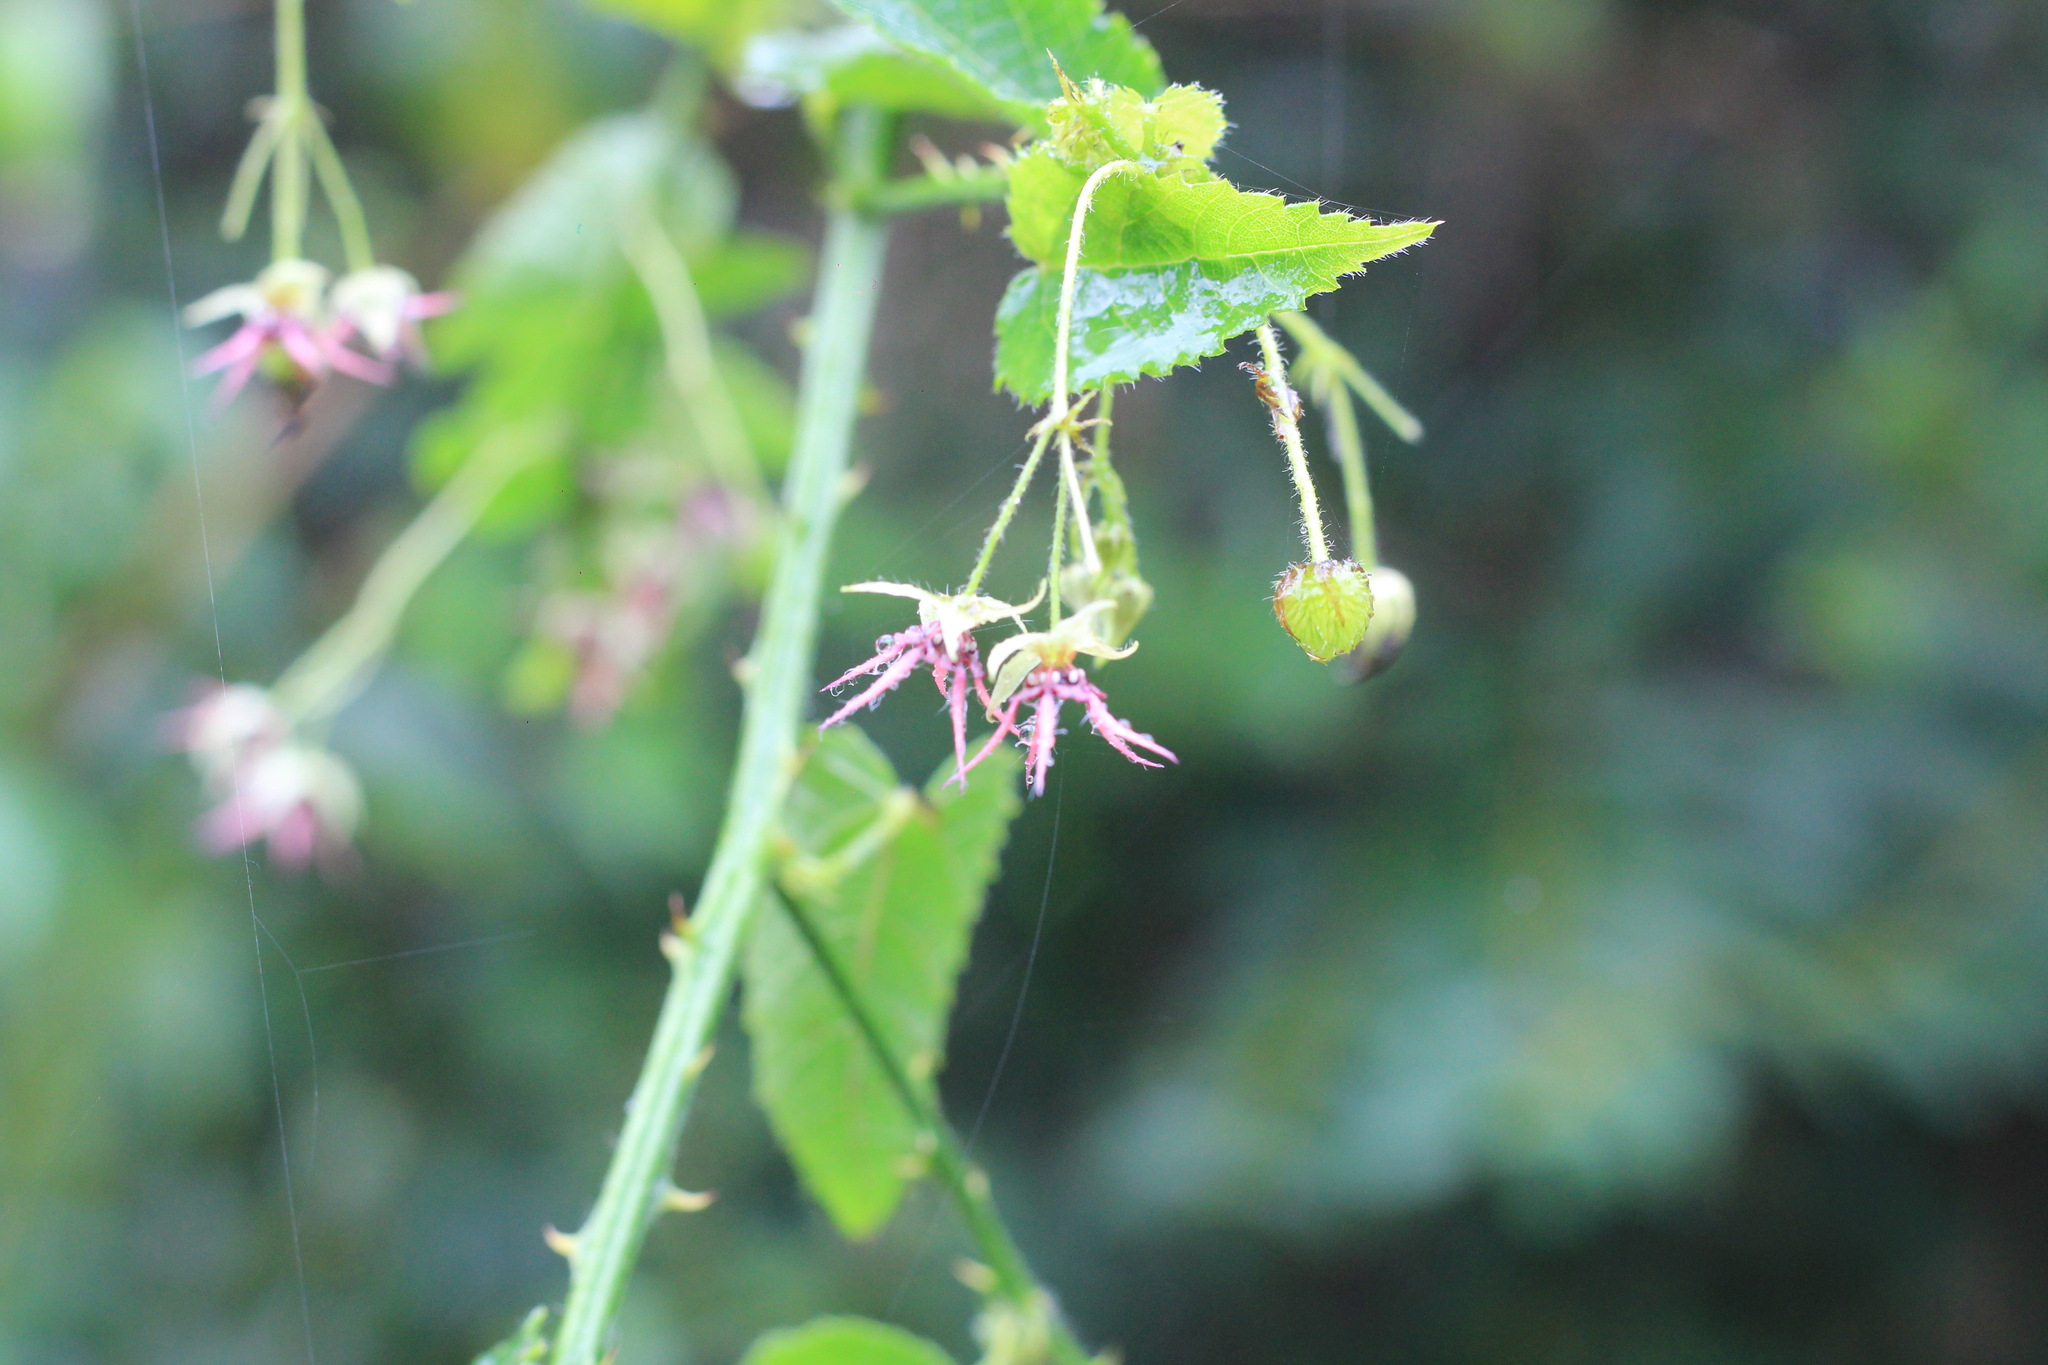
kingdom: Plantae
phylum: Tracheophyta
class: Magnoliopsida
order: Malvales
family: Malvaceae
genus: Byttneria
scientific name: Byttneria urticifolia
